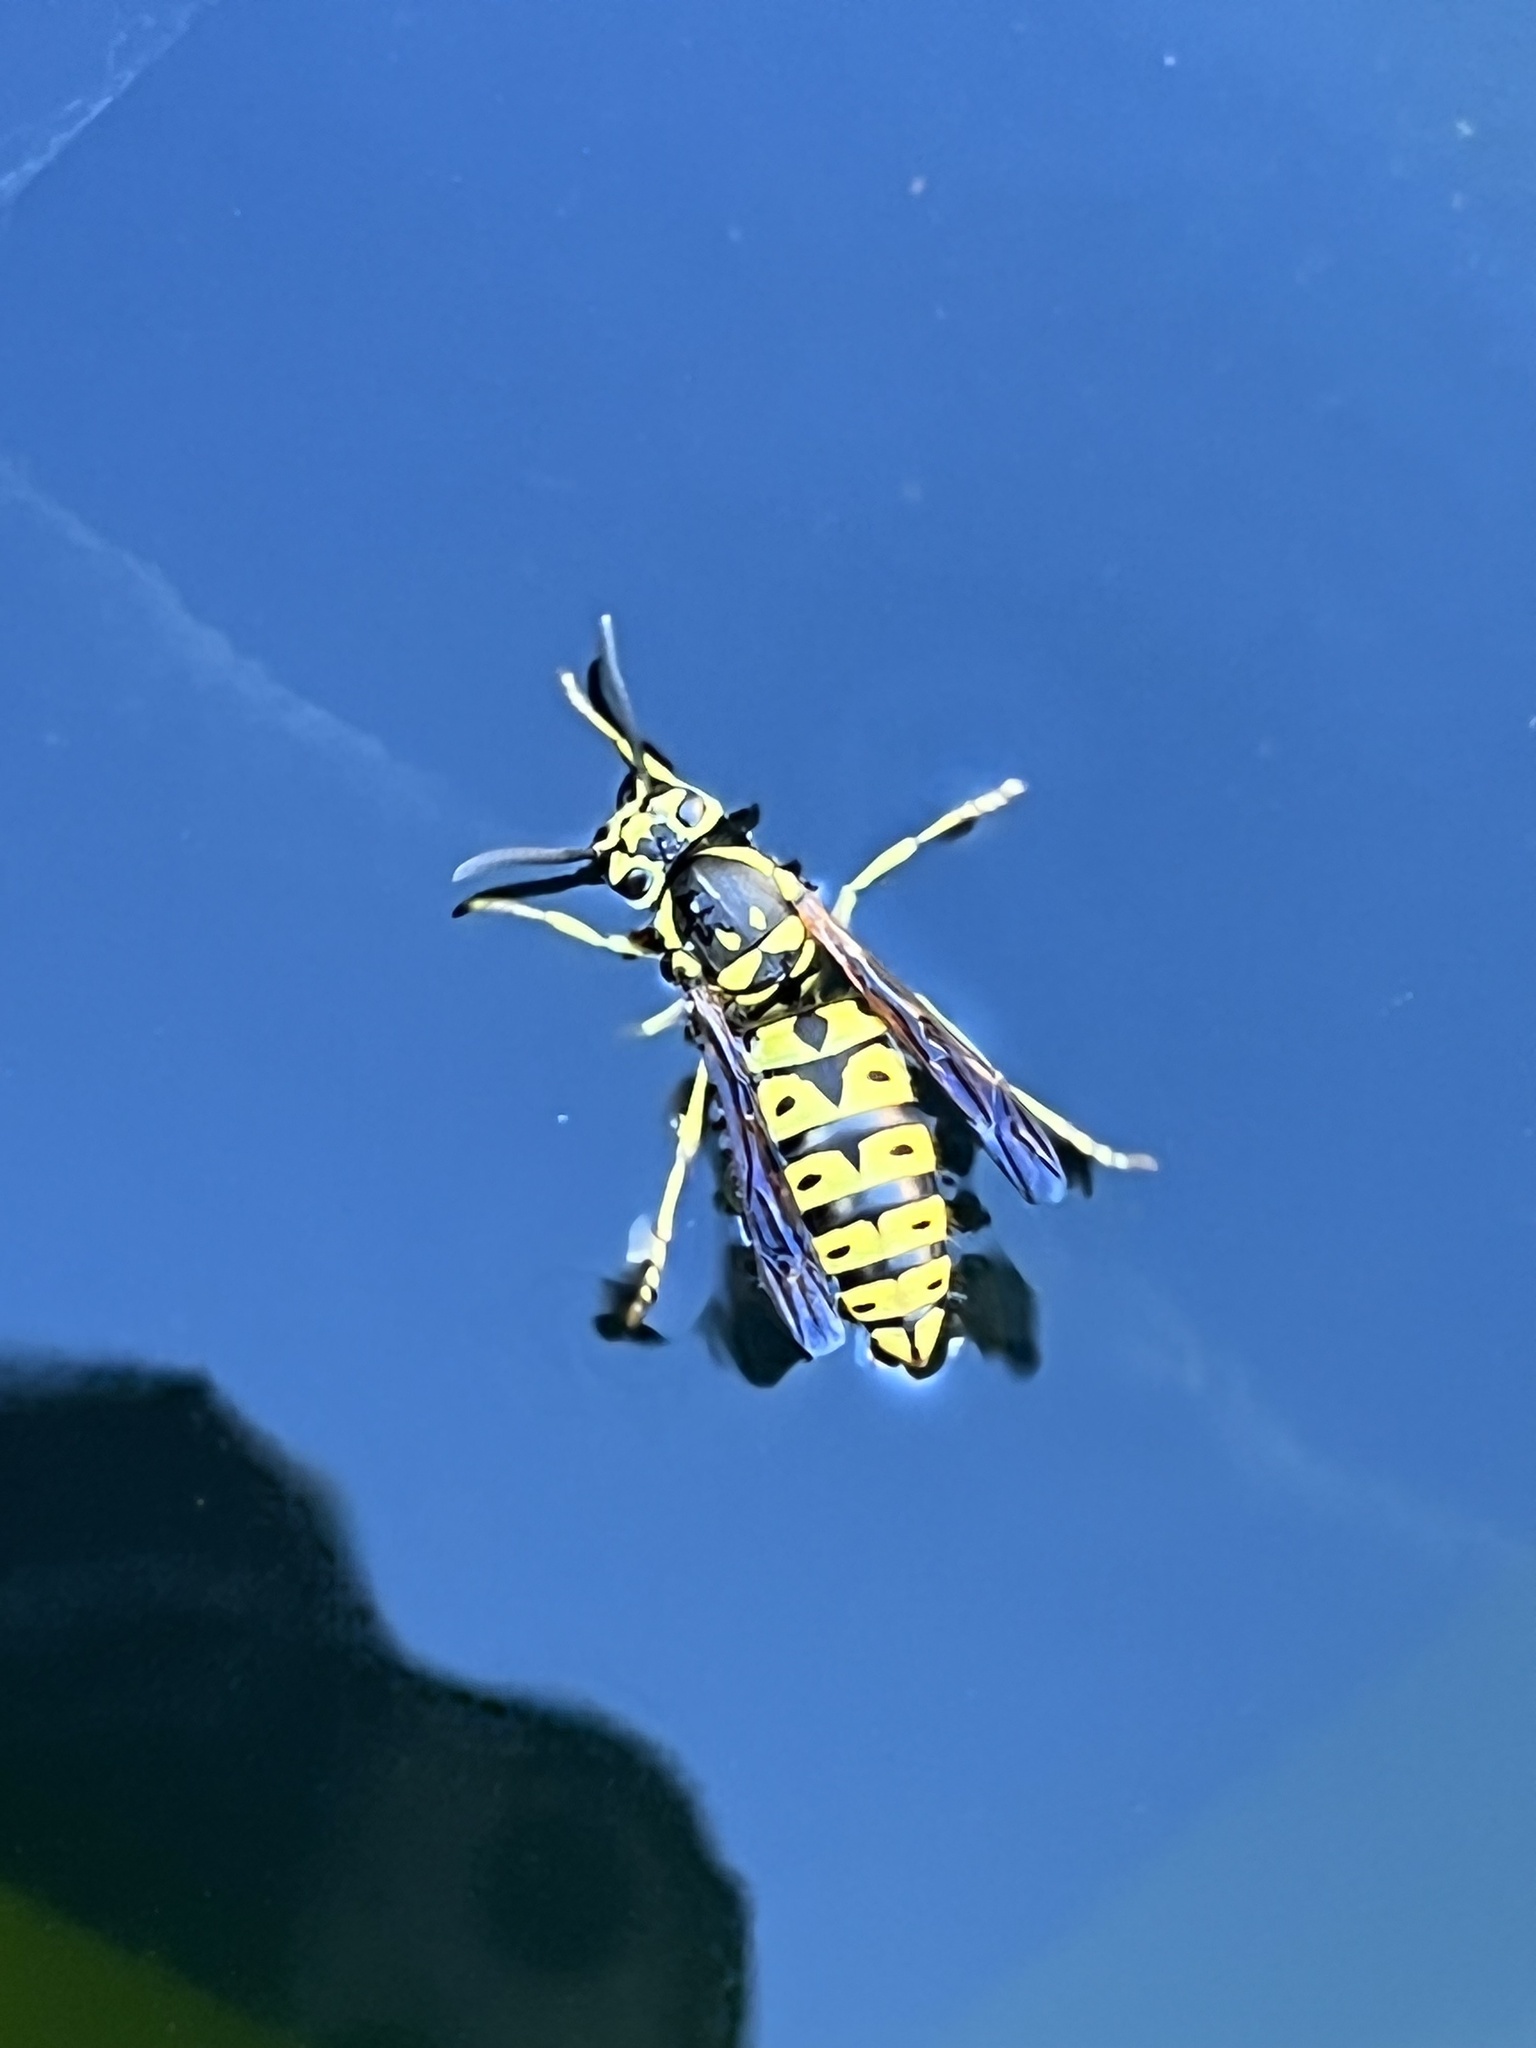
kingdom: Animalia
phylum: Arthropoda
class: Insecta
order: Hymenoptera
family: Vespidae
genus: Vespula
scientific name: Vespula pensylvanica
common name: Western yellowjacket
